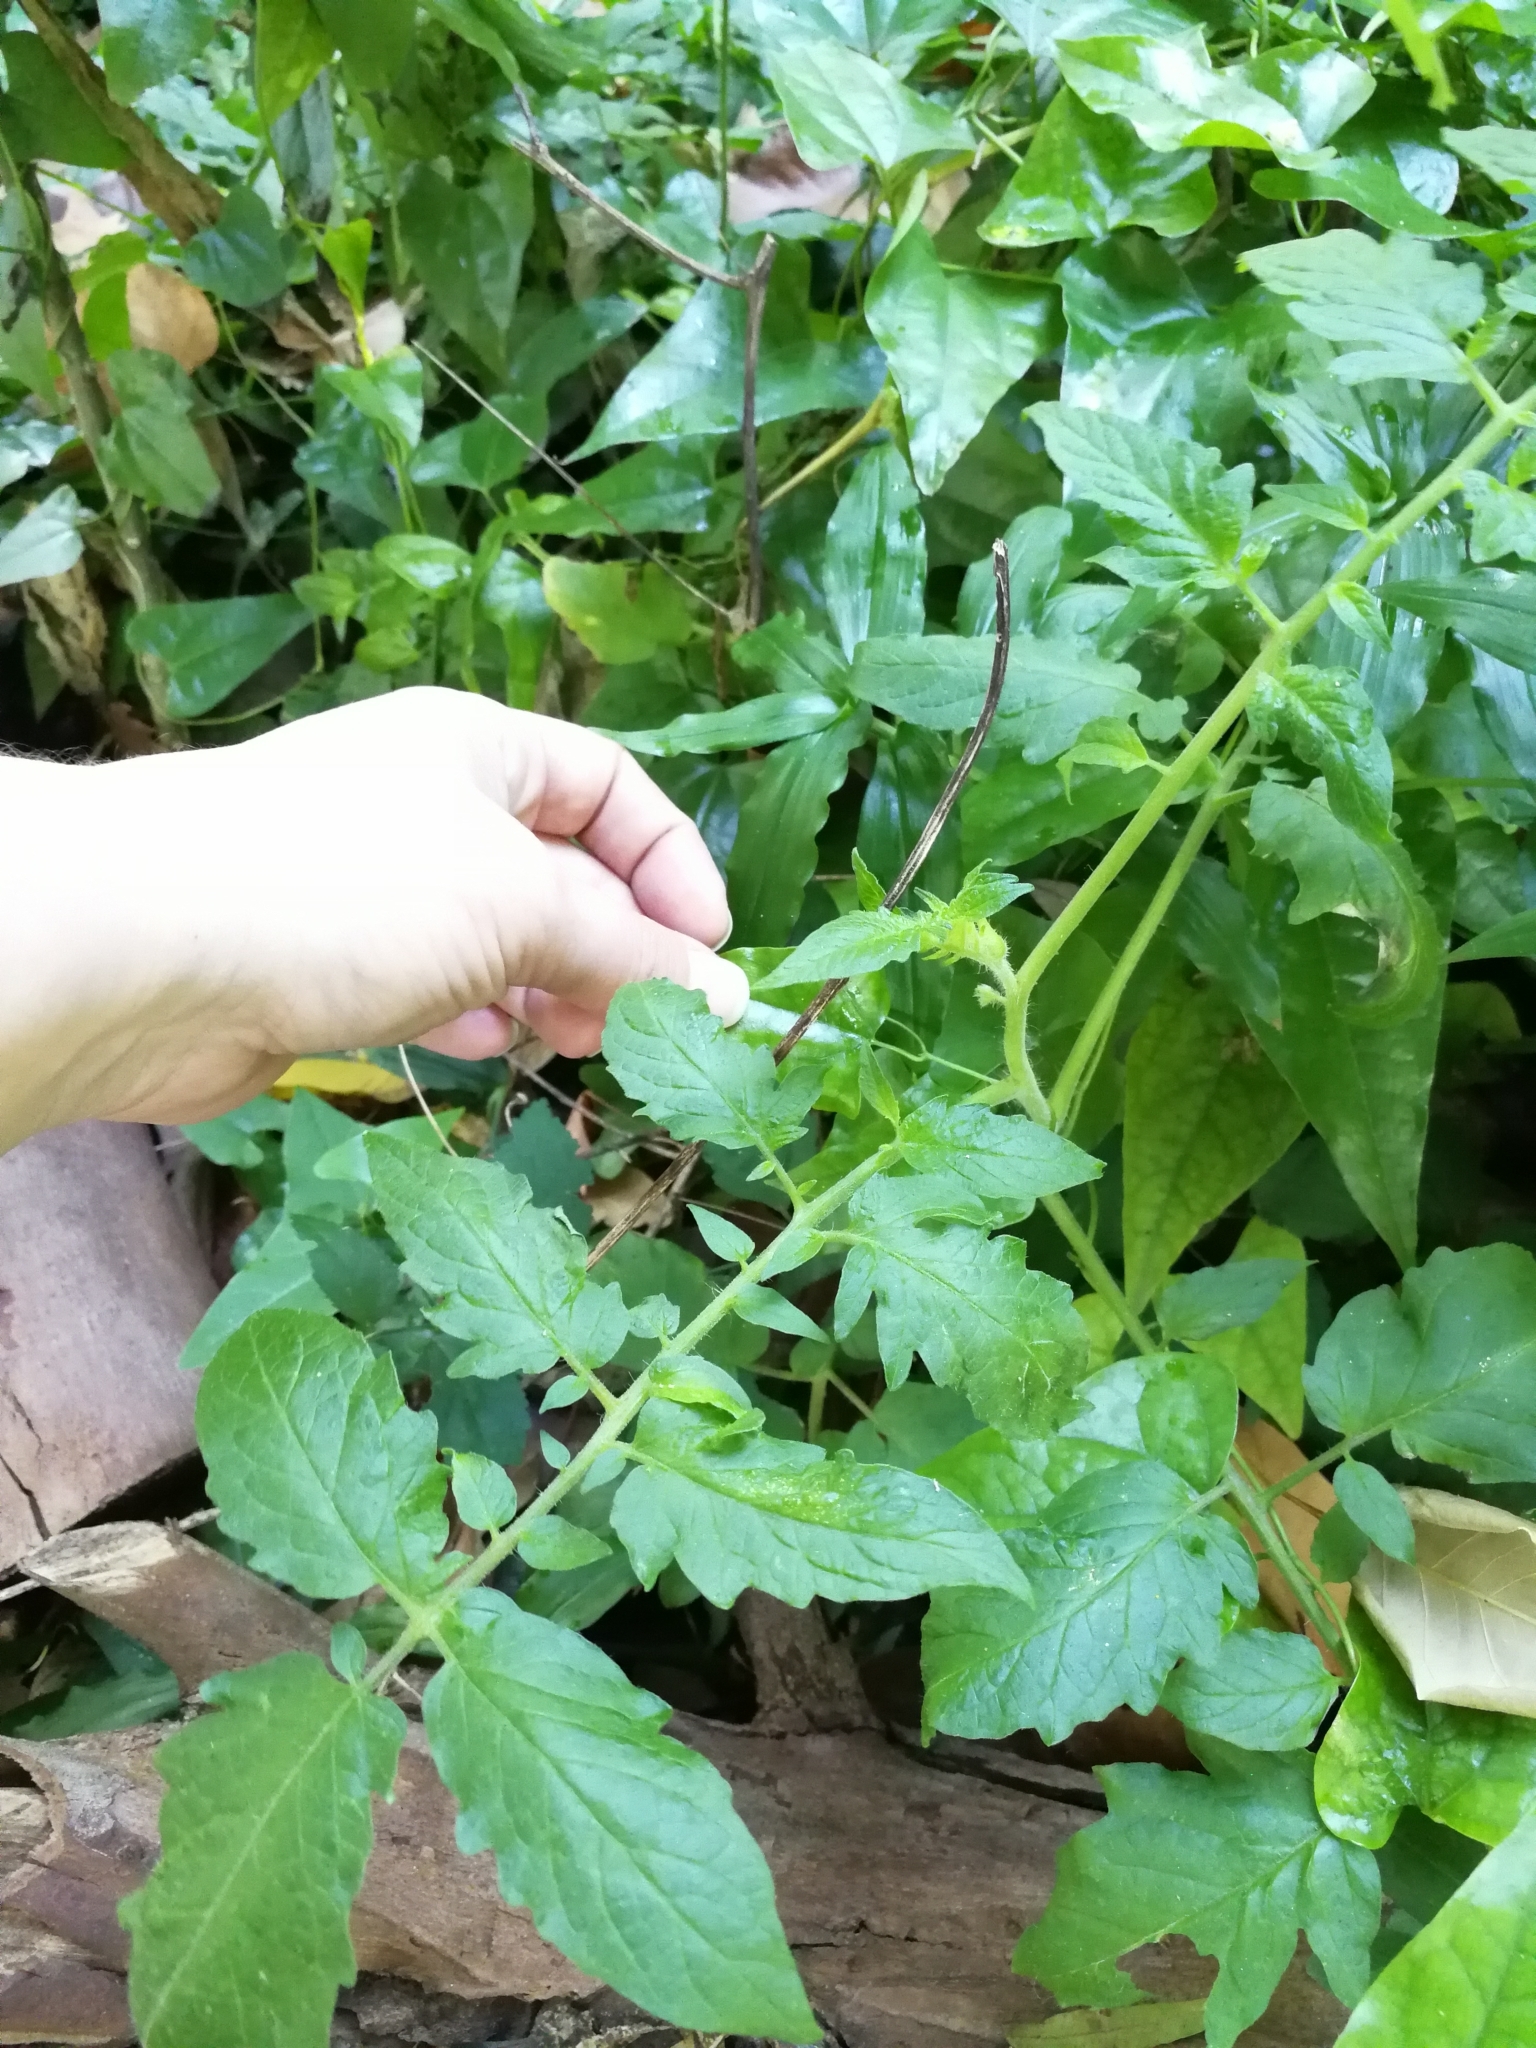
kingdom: Plantae
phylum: Tracheophyta
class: Magnoliopsida
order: Solanales
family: Solanaceae
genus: Solanum
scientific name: Solanum lycopersicum
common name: Garden tomato
